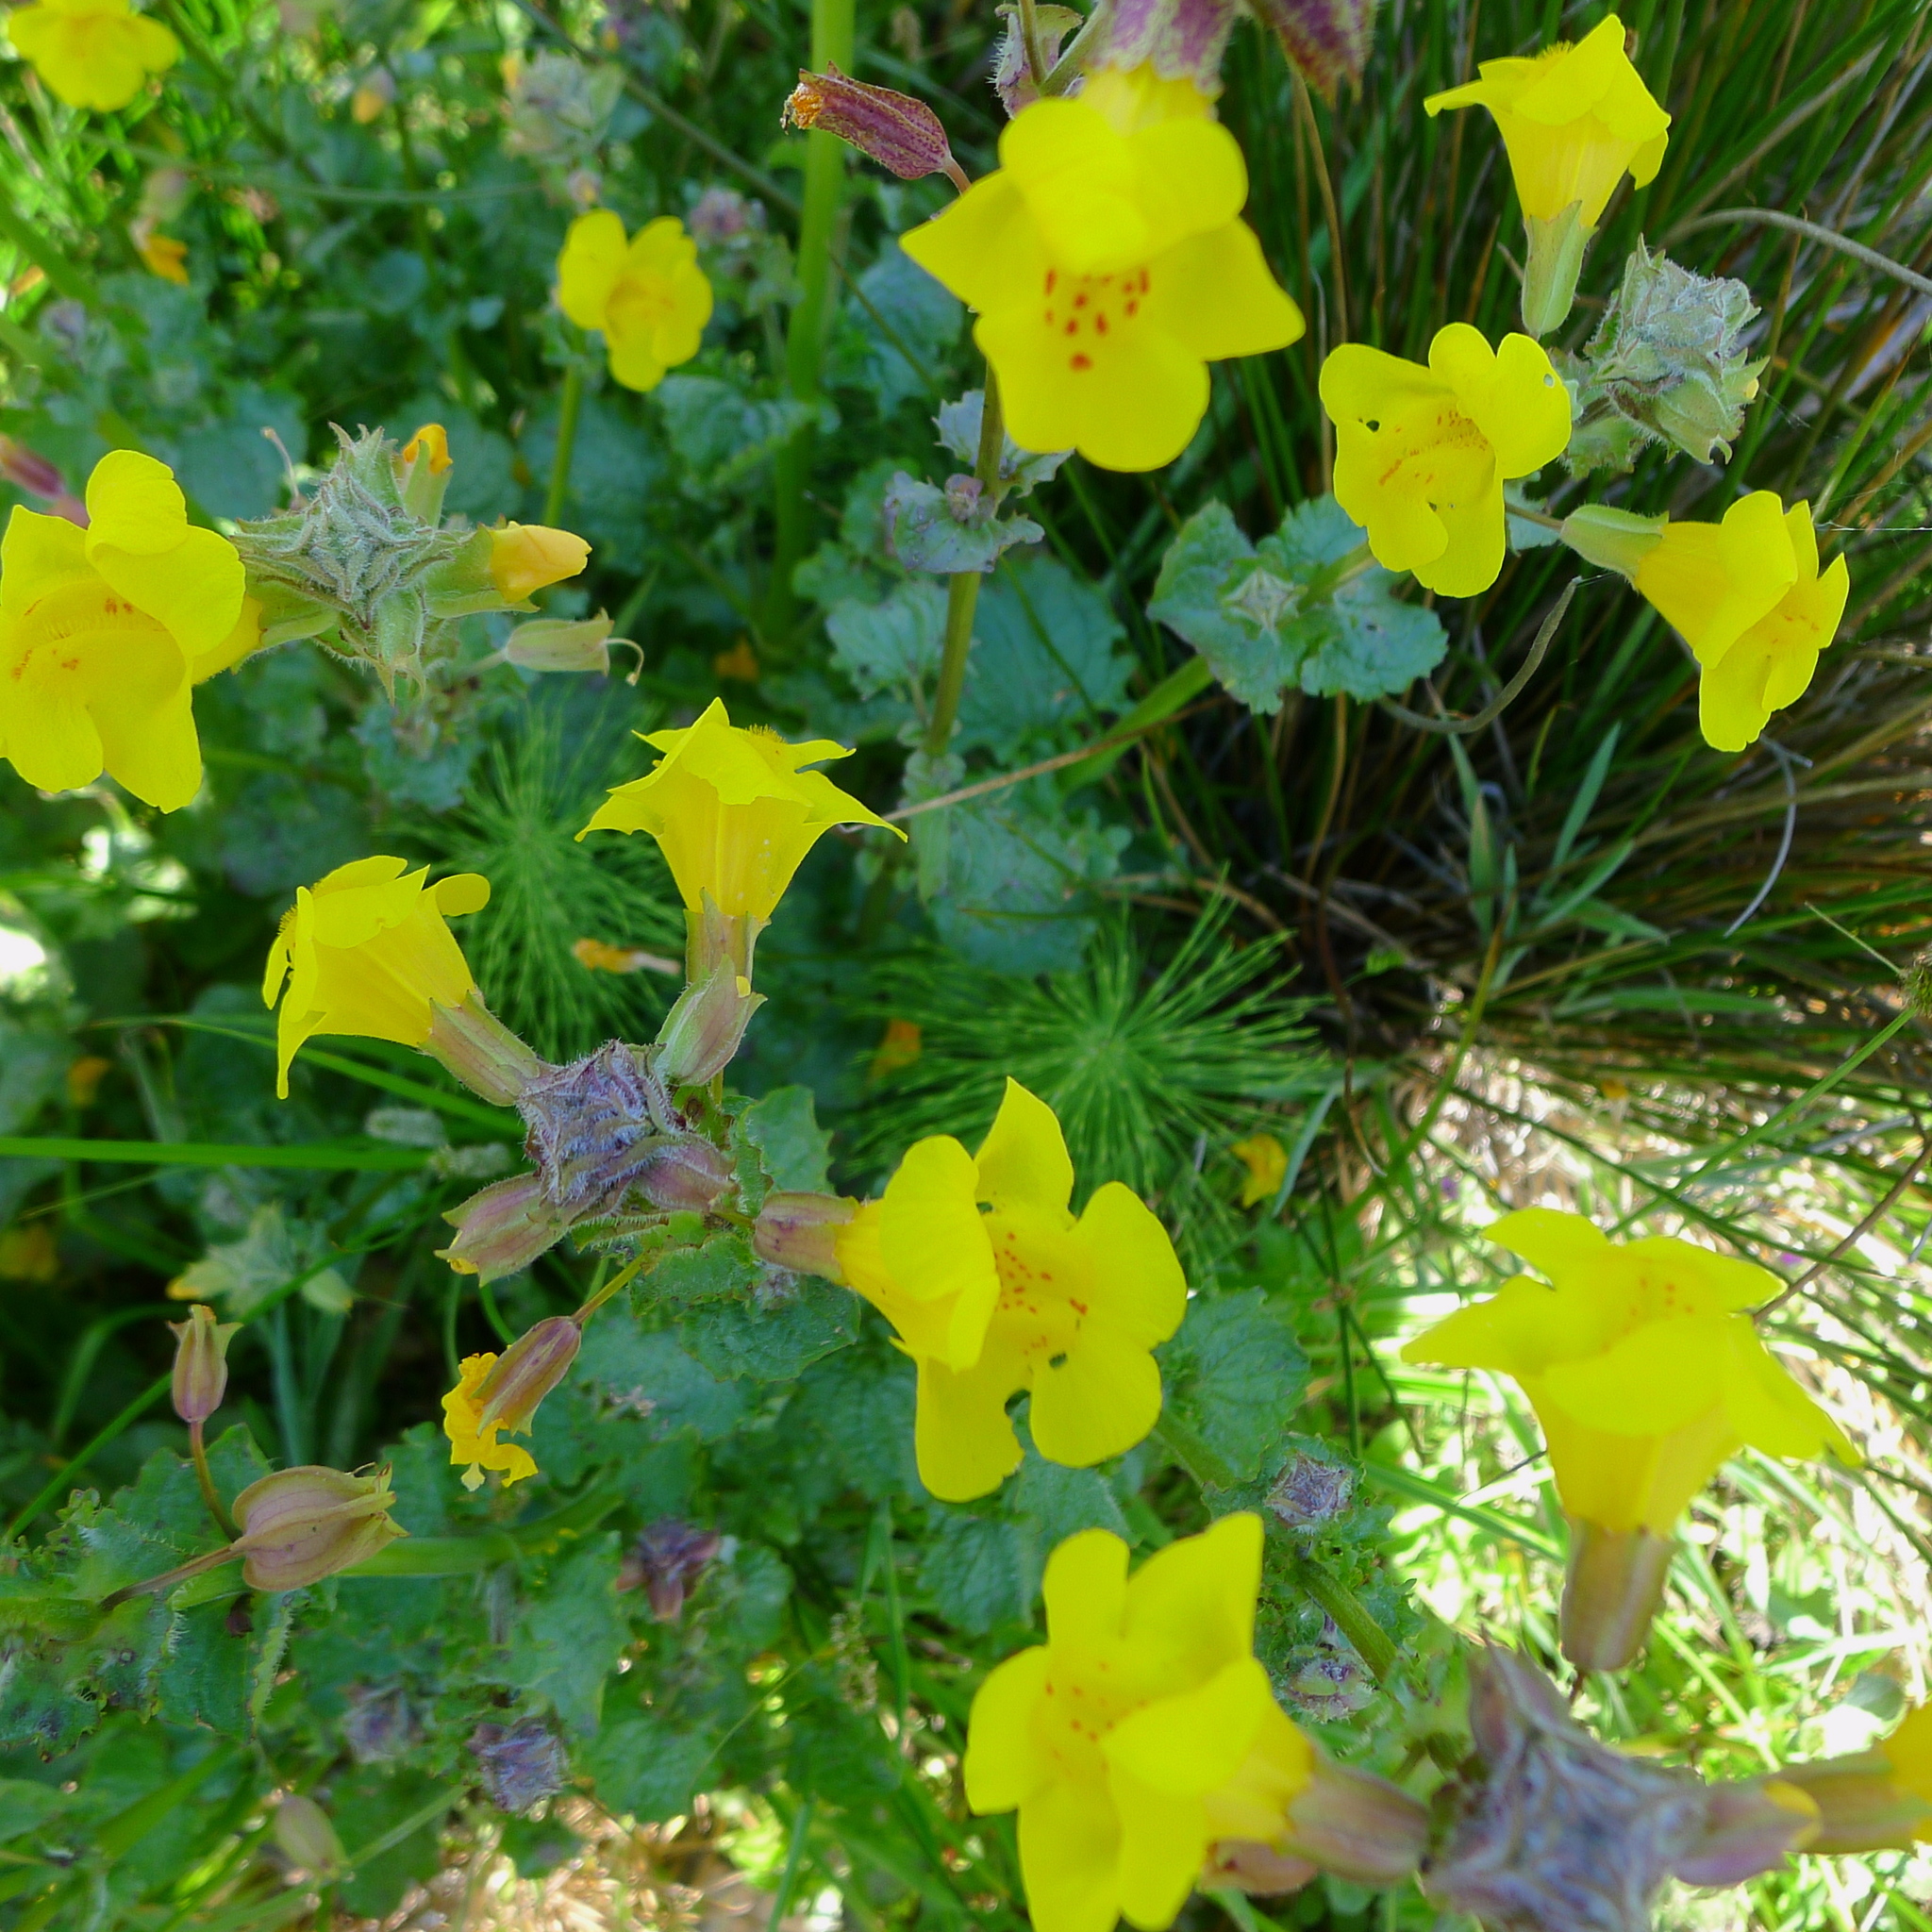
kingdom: Plantae
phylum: Tracheophyta
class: Magnoliopsida
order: Lamiales
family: Phrymaceae
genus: Erythranthe
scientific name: Erythranthe guttata
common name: Monkeyflower
